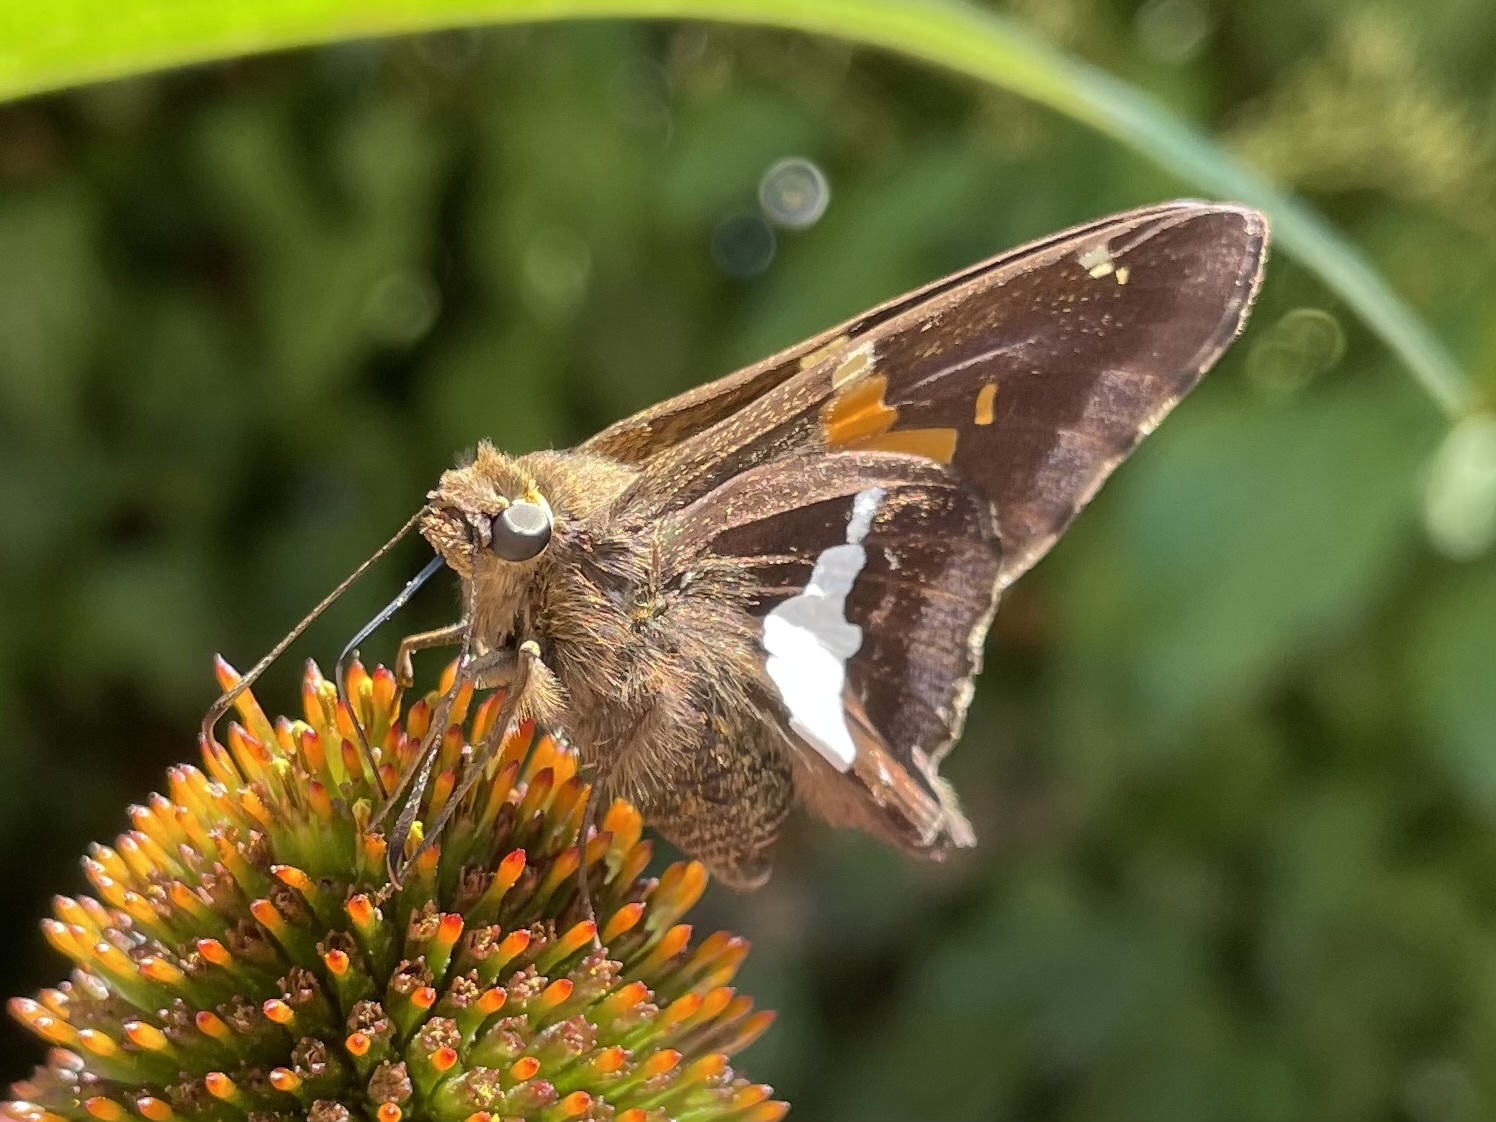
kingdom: Animalia
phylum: Arthropoda
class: Insecta
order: Lepidoptera
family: Hesperiidae
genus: Epargyreus
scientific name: Epargyreus clarus
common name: Silver-spotted skipper
